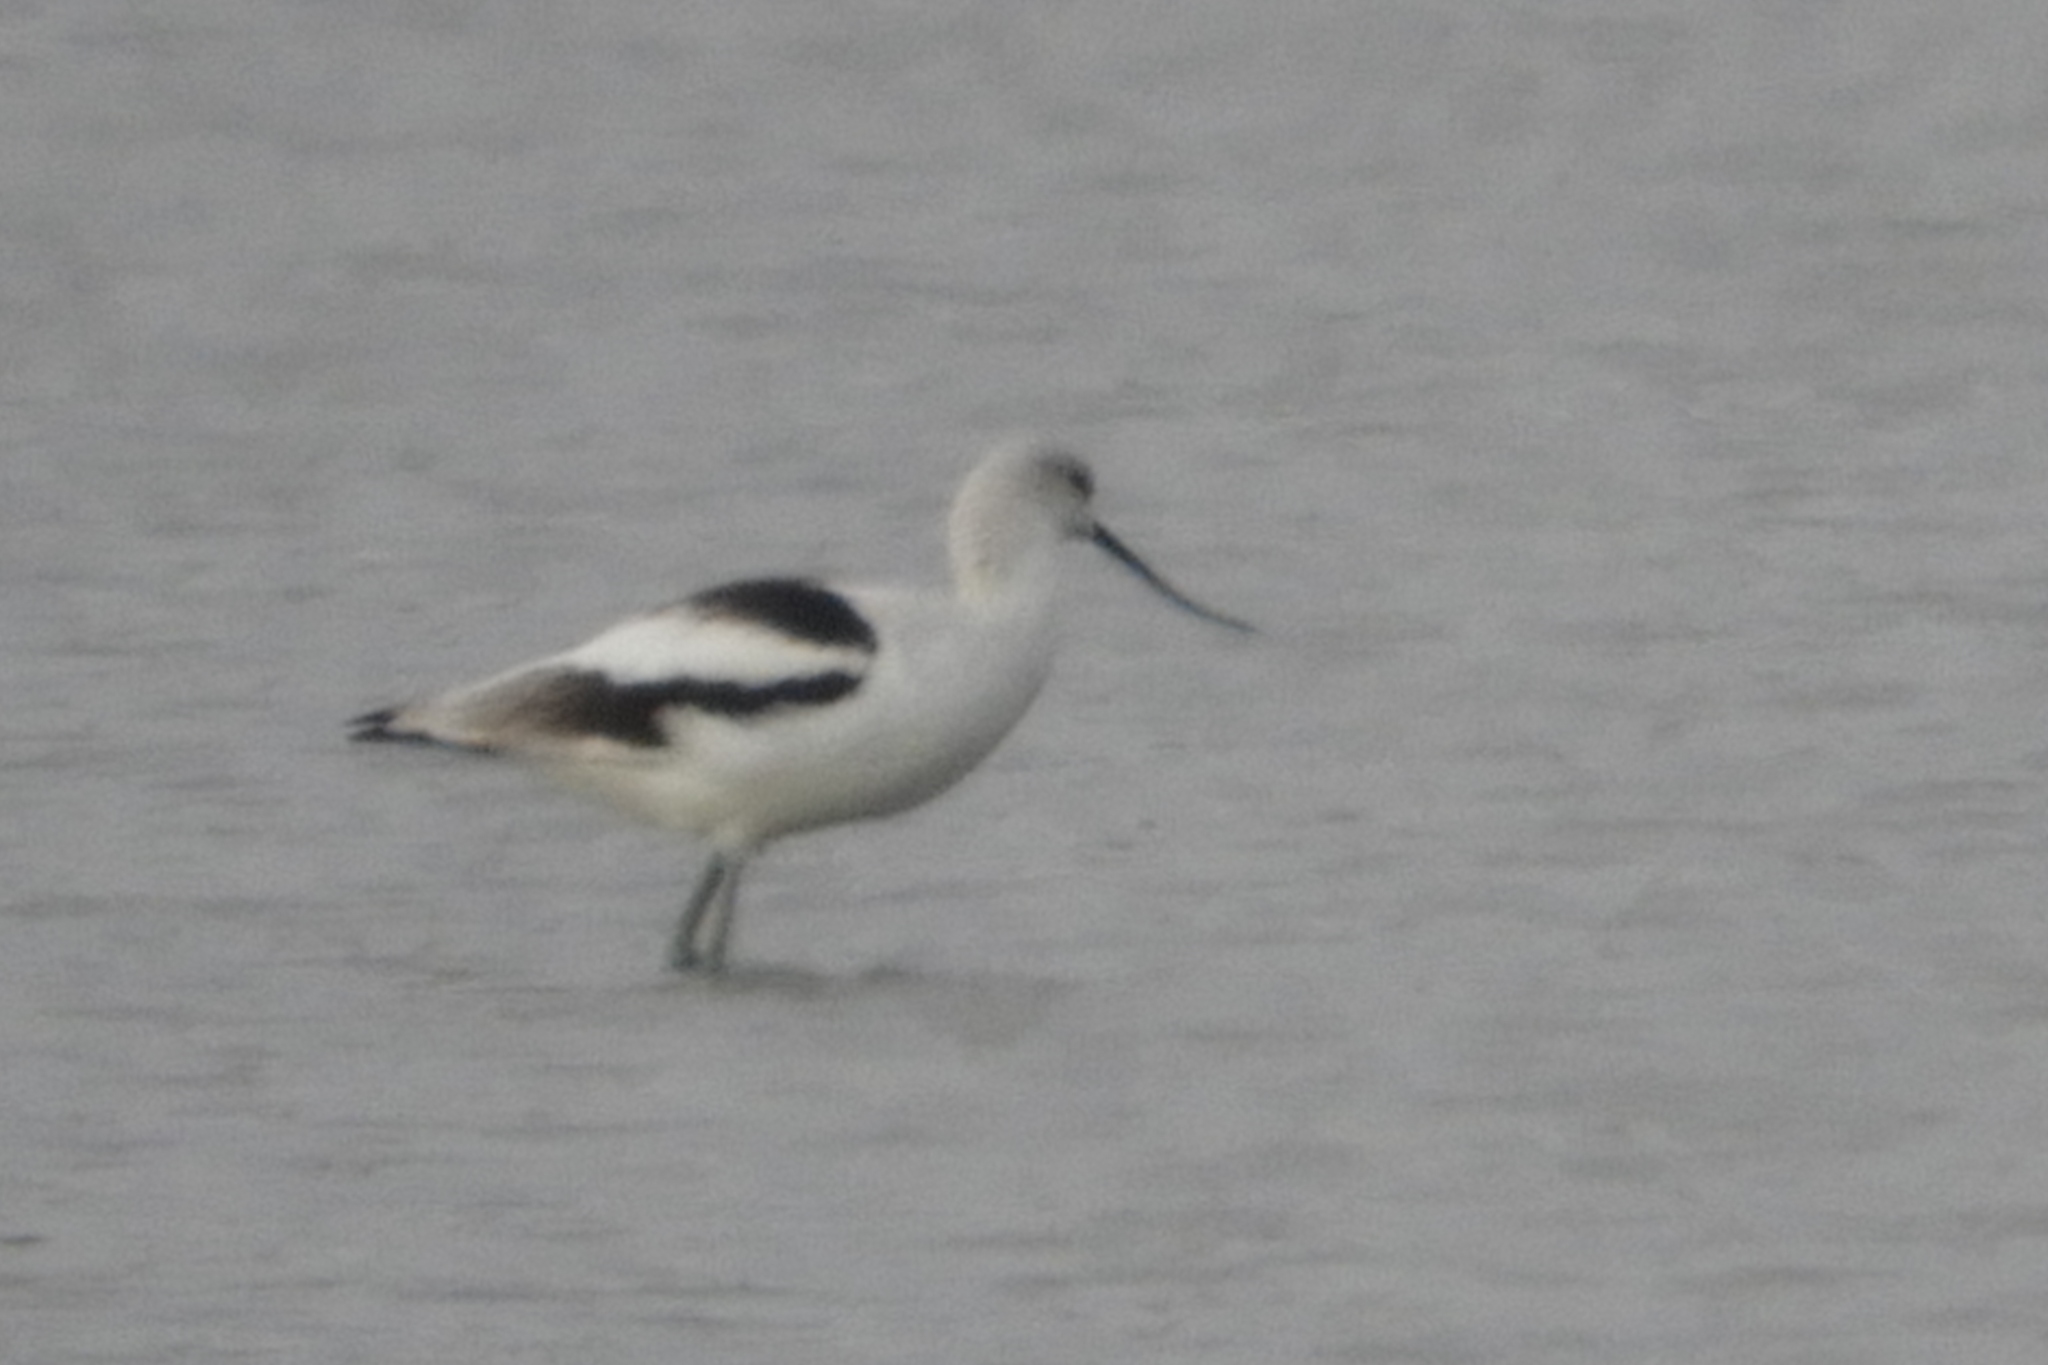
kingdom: Animalia
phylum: Chordata
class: Aves
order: Charadriiformes
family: Recurvirostridae
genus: Recurvirostra
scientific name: Recurvirostra americana
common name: American avocet
